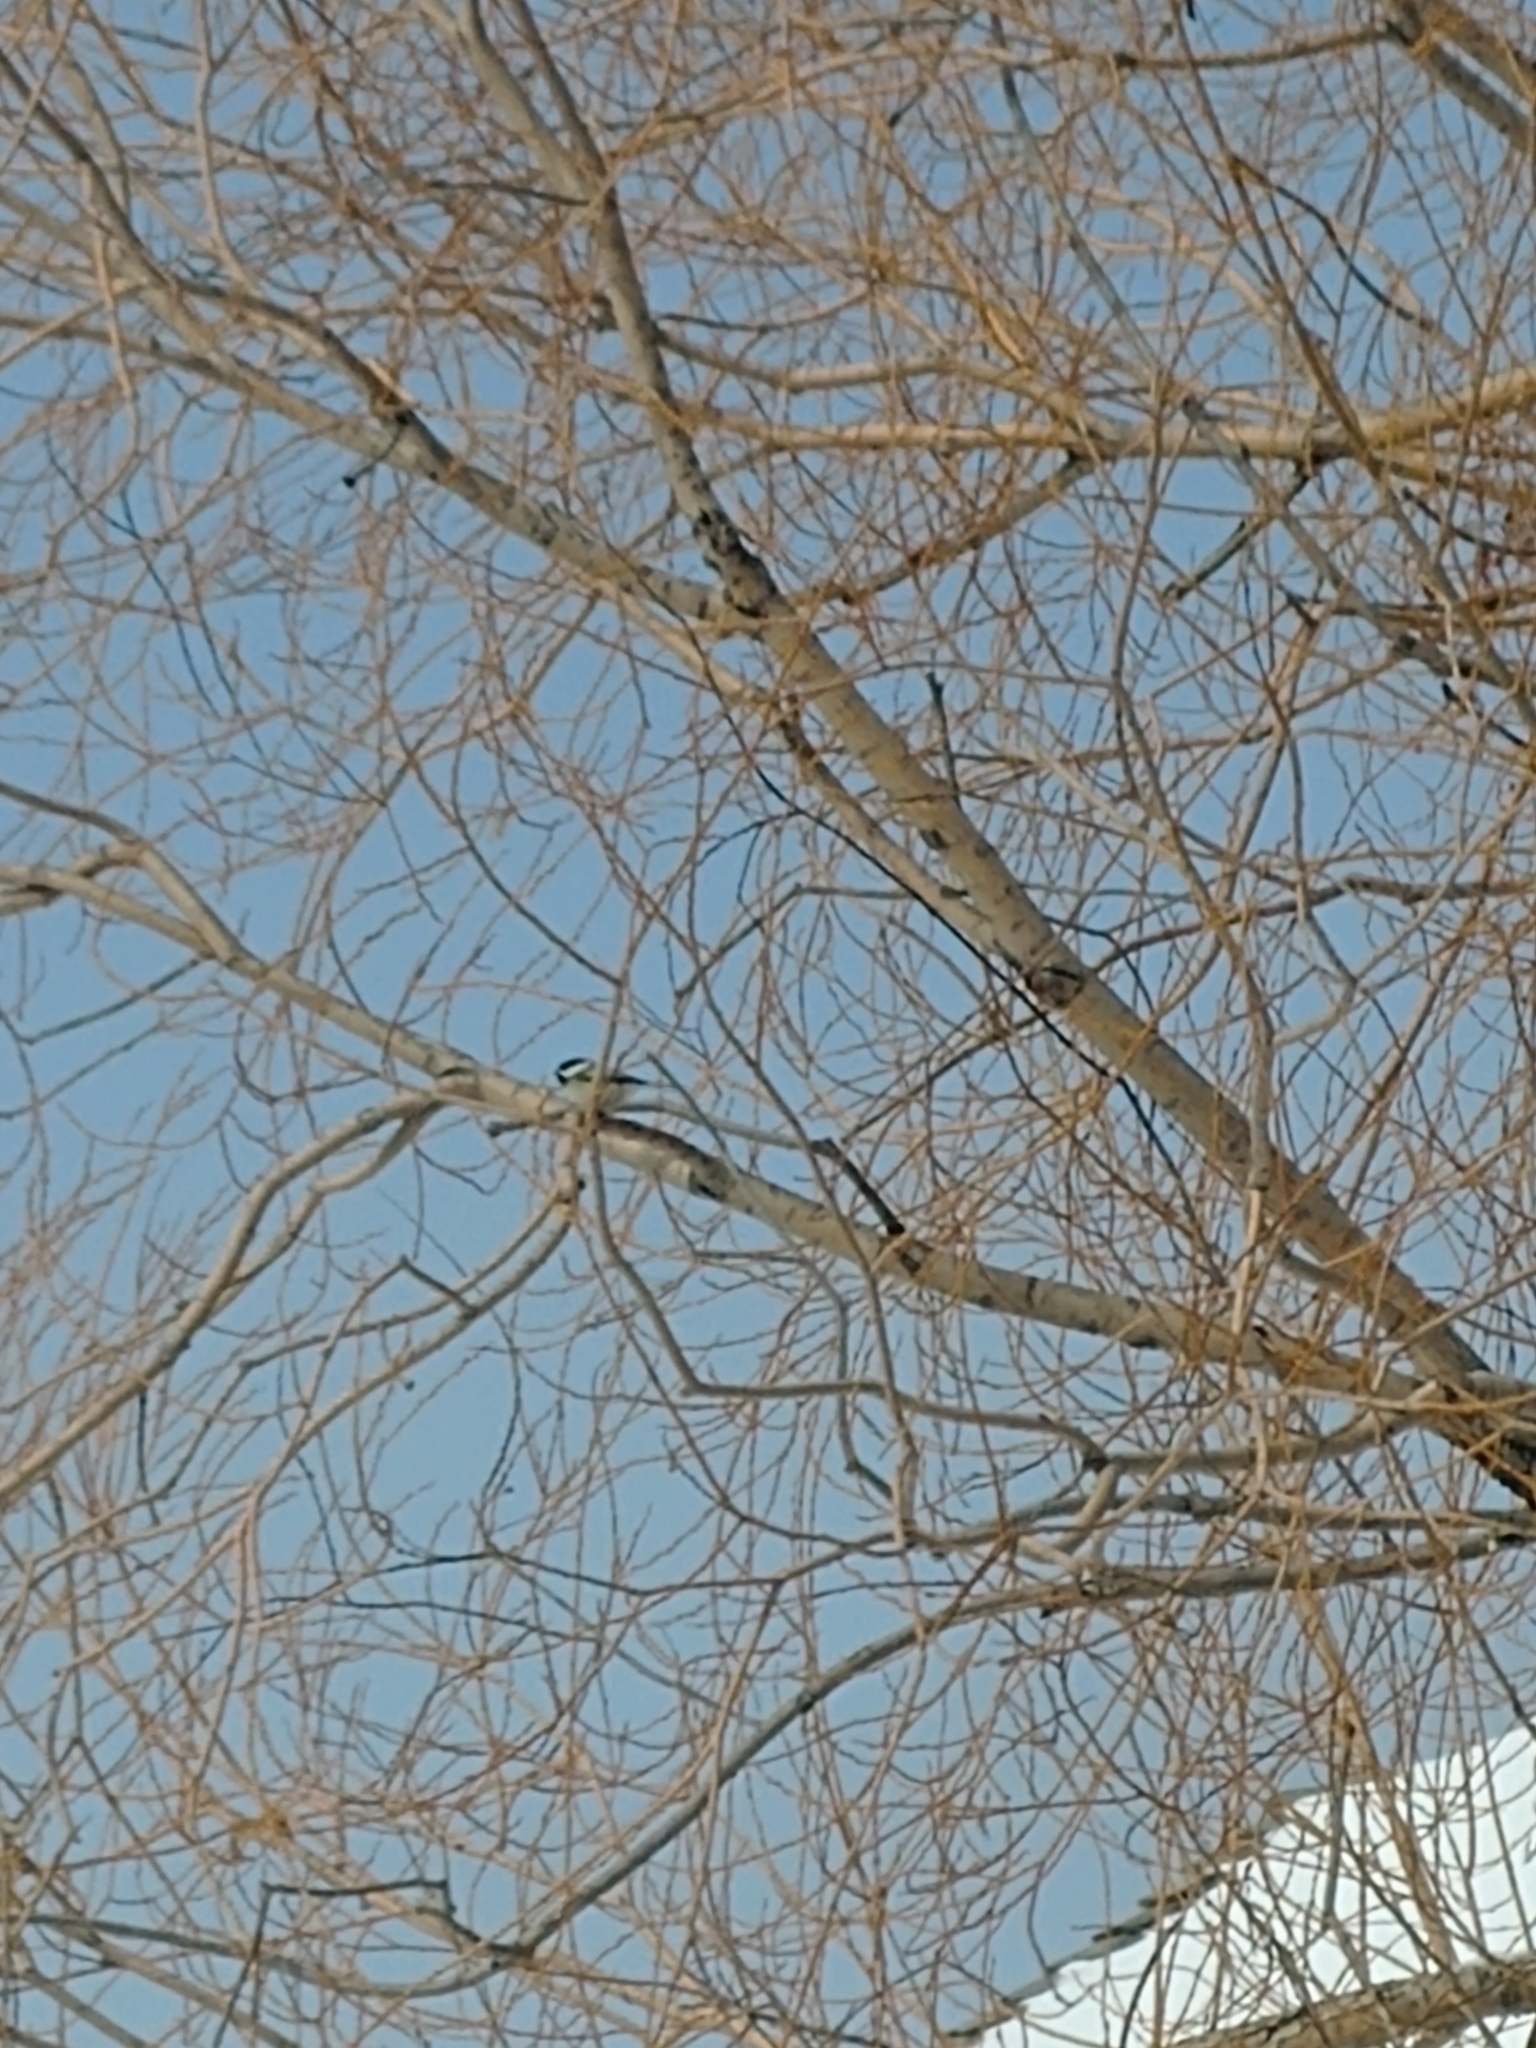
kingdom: Animalia
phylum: Chordata
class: Aves
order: Passeriformes
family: Paridae
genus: Poecile
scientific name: Poecile atricapillus
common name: Black-capped chickadee
